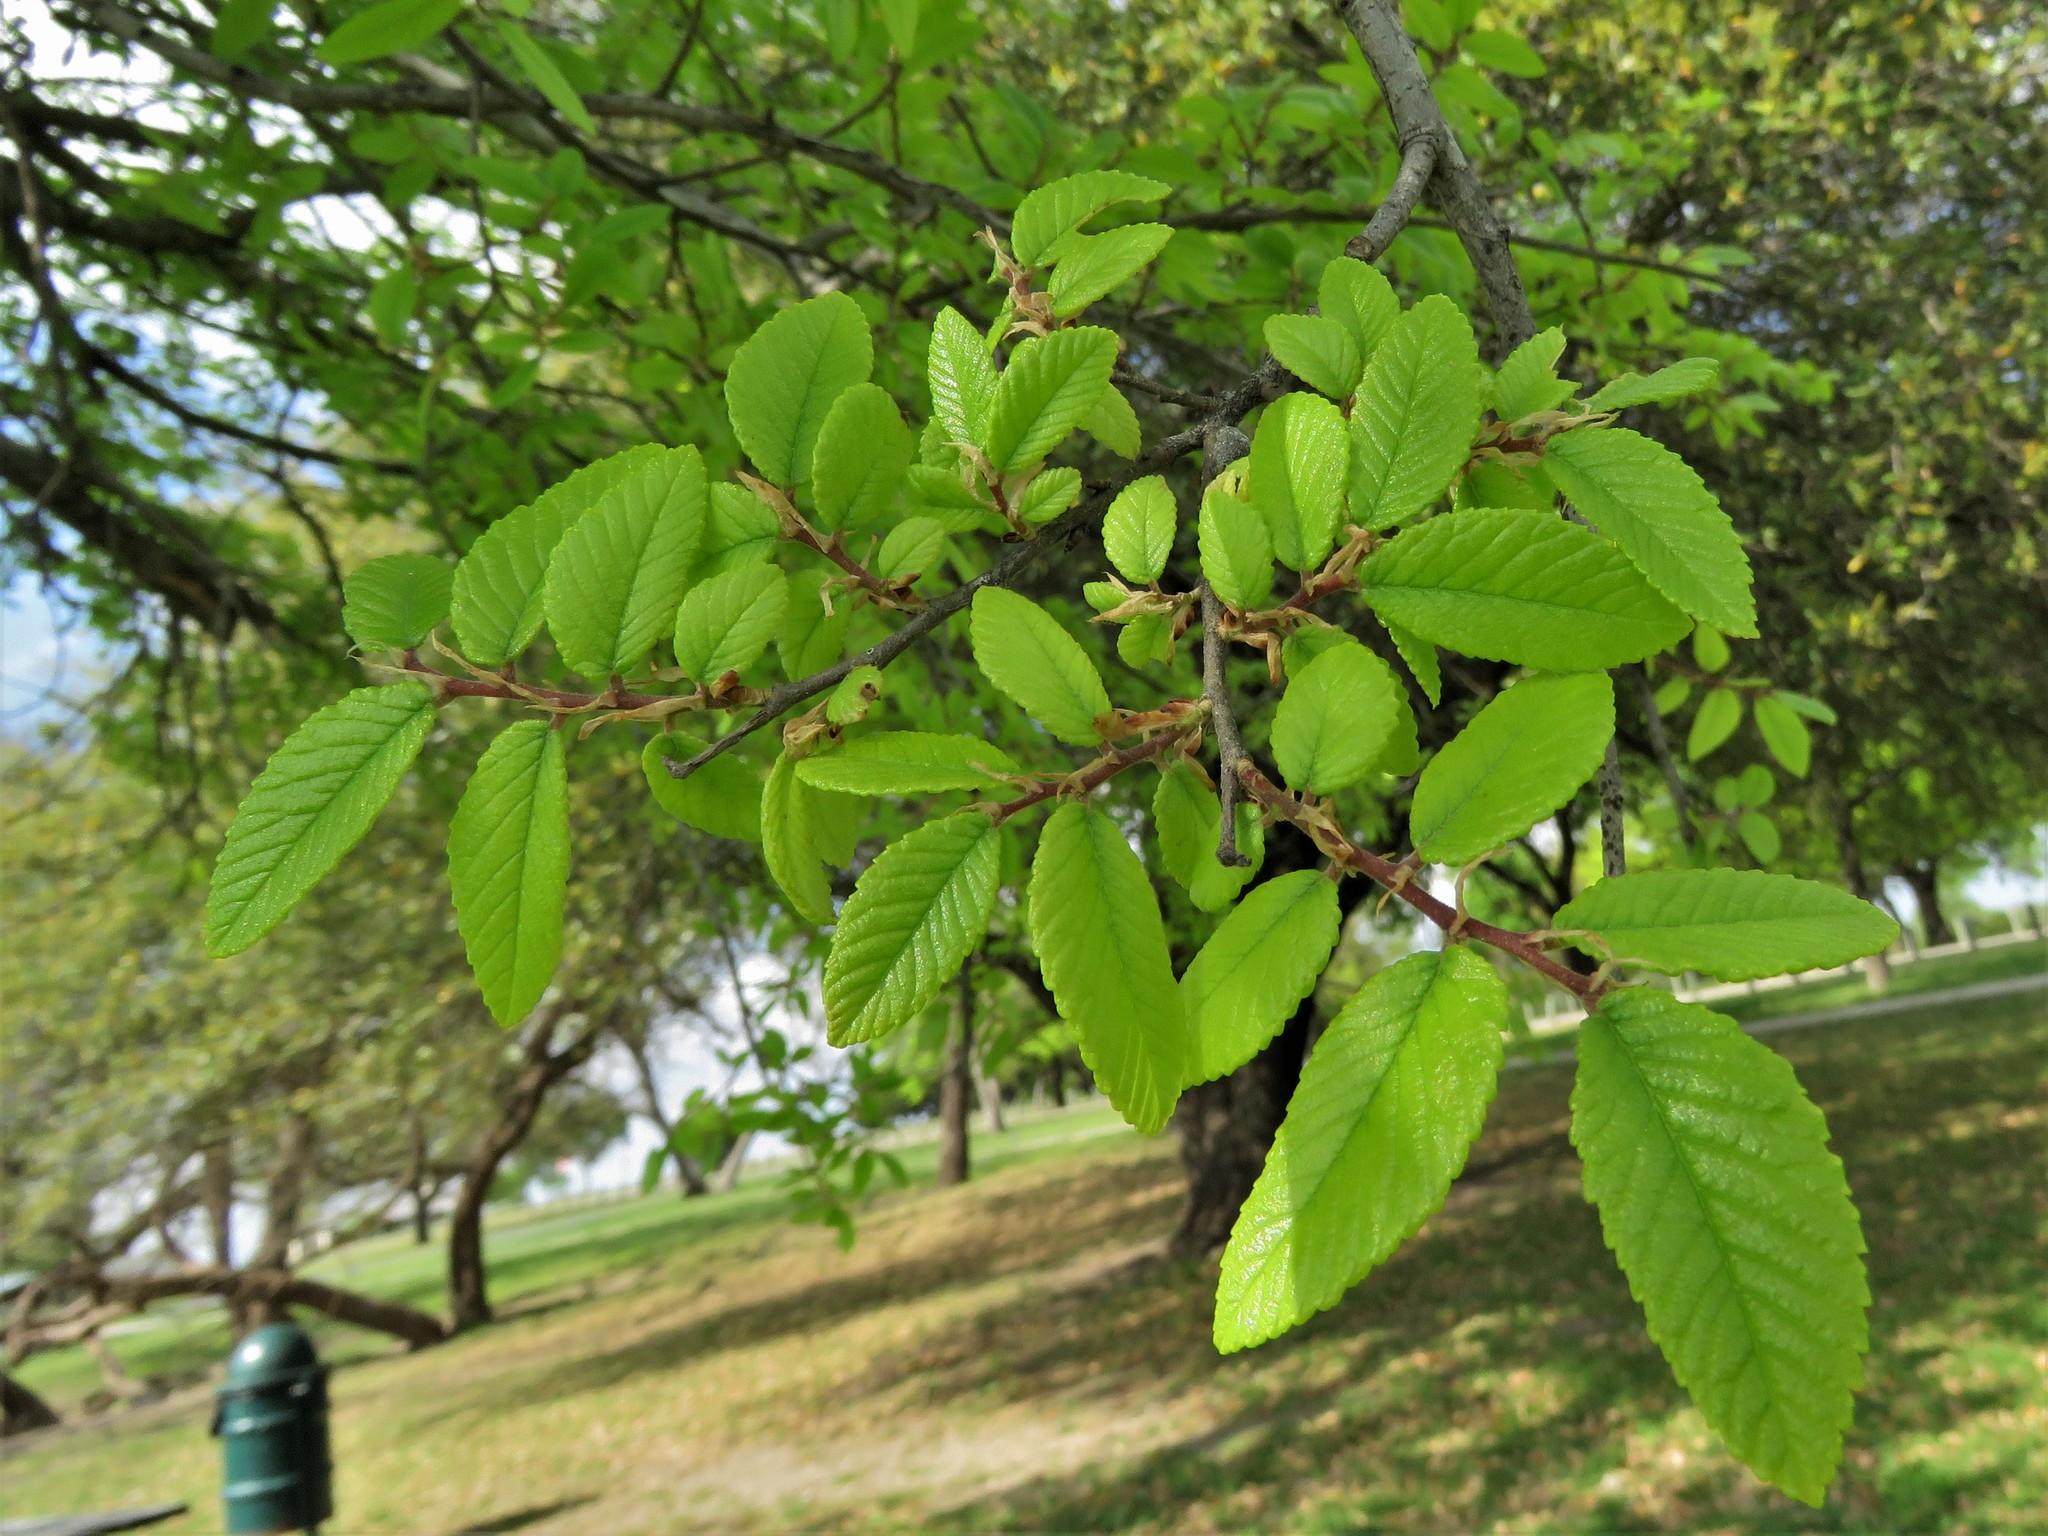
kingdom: Plantae
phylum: Tracheophyta
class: Magnoliopsida
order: Rosales
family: Ulmaceae
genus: Ulmus
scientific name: Ulmus crassifolia
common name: Basket elm
